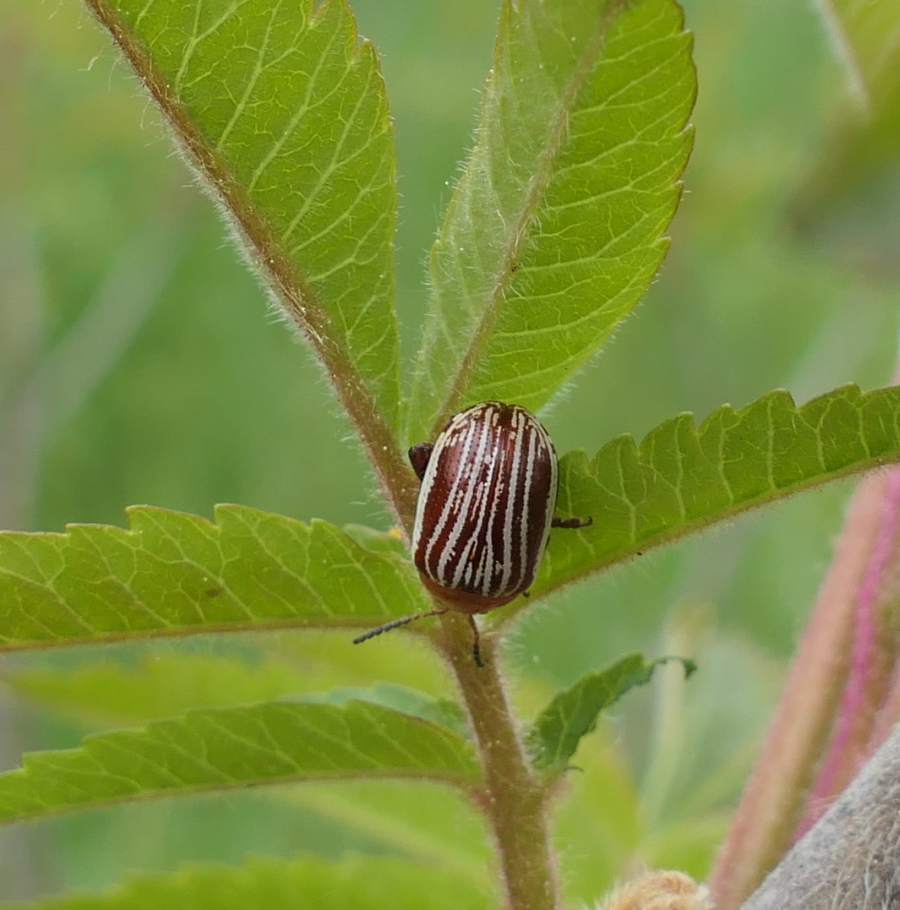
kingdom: Animalia
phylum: Arthropoda
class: Insecta
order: Coleoptera
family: Chrysomelidae
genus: Blepharida
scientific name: Blepharida rhois
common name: Sumac flea beetle
